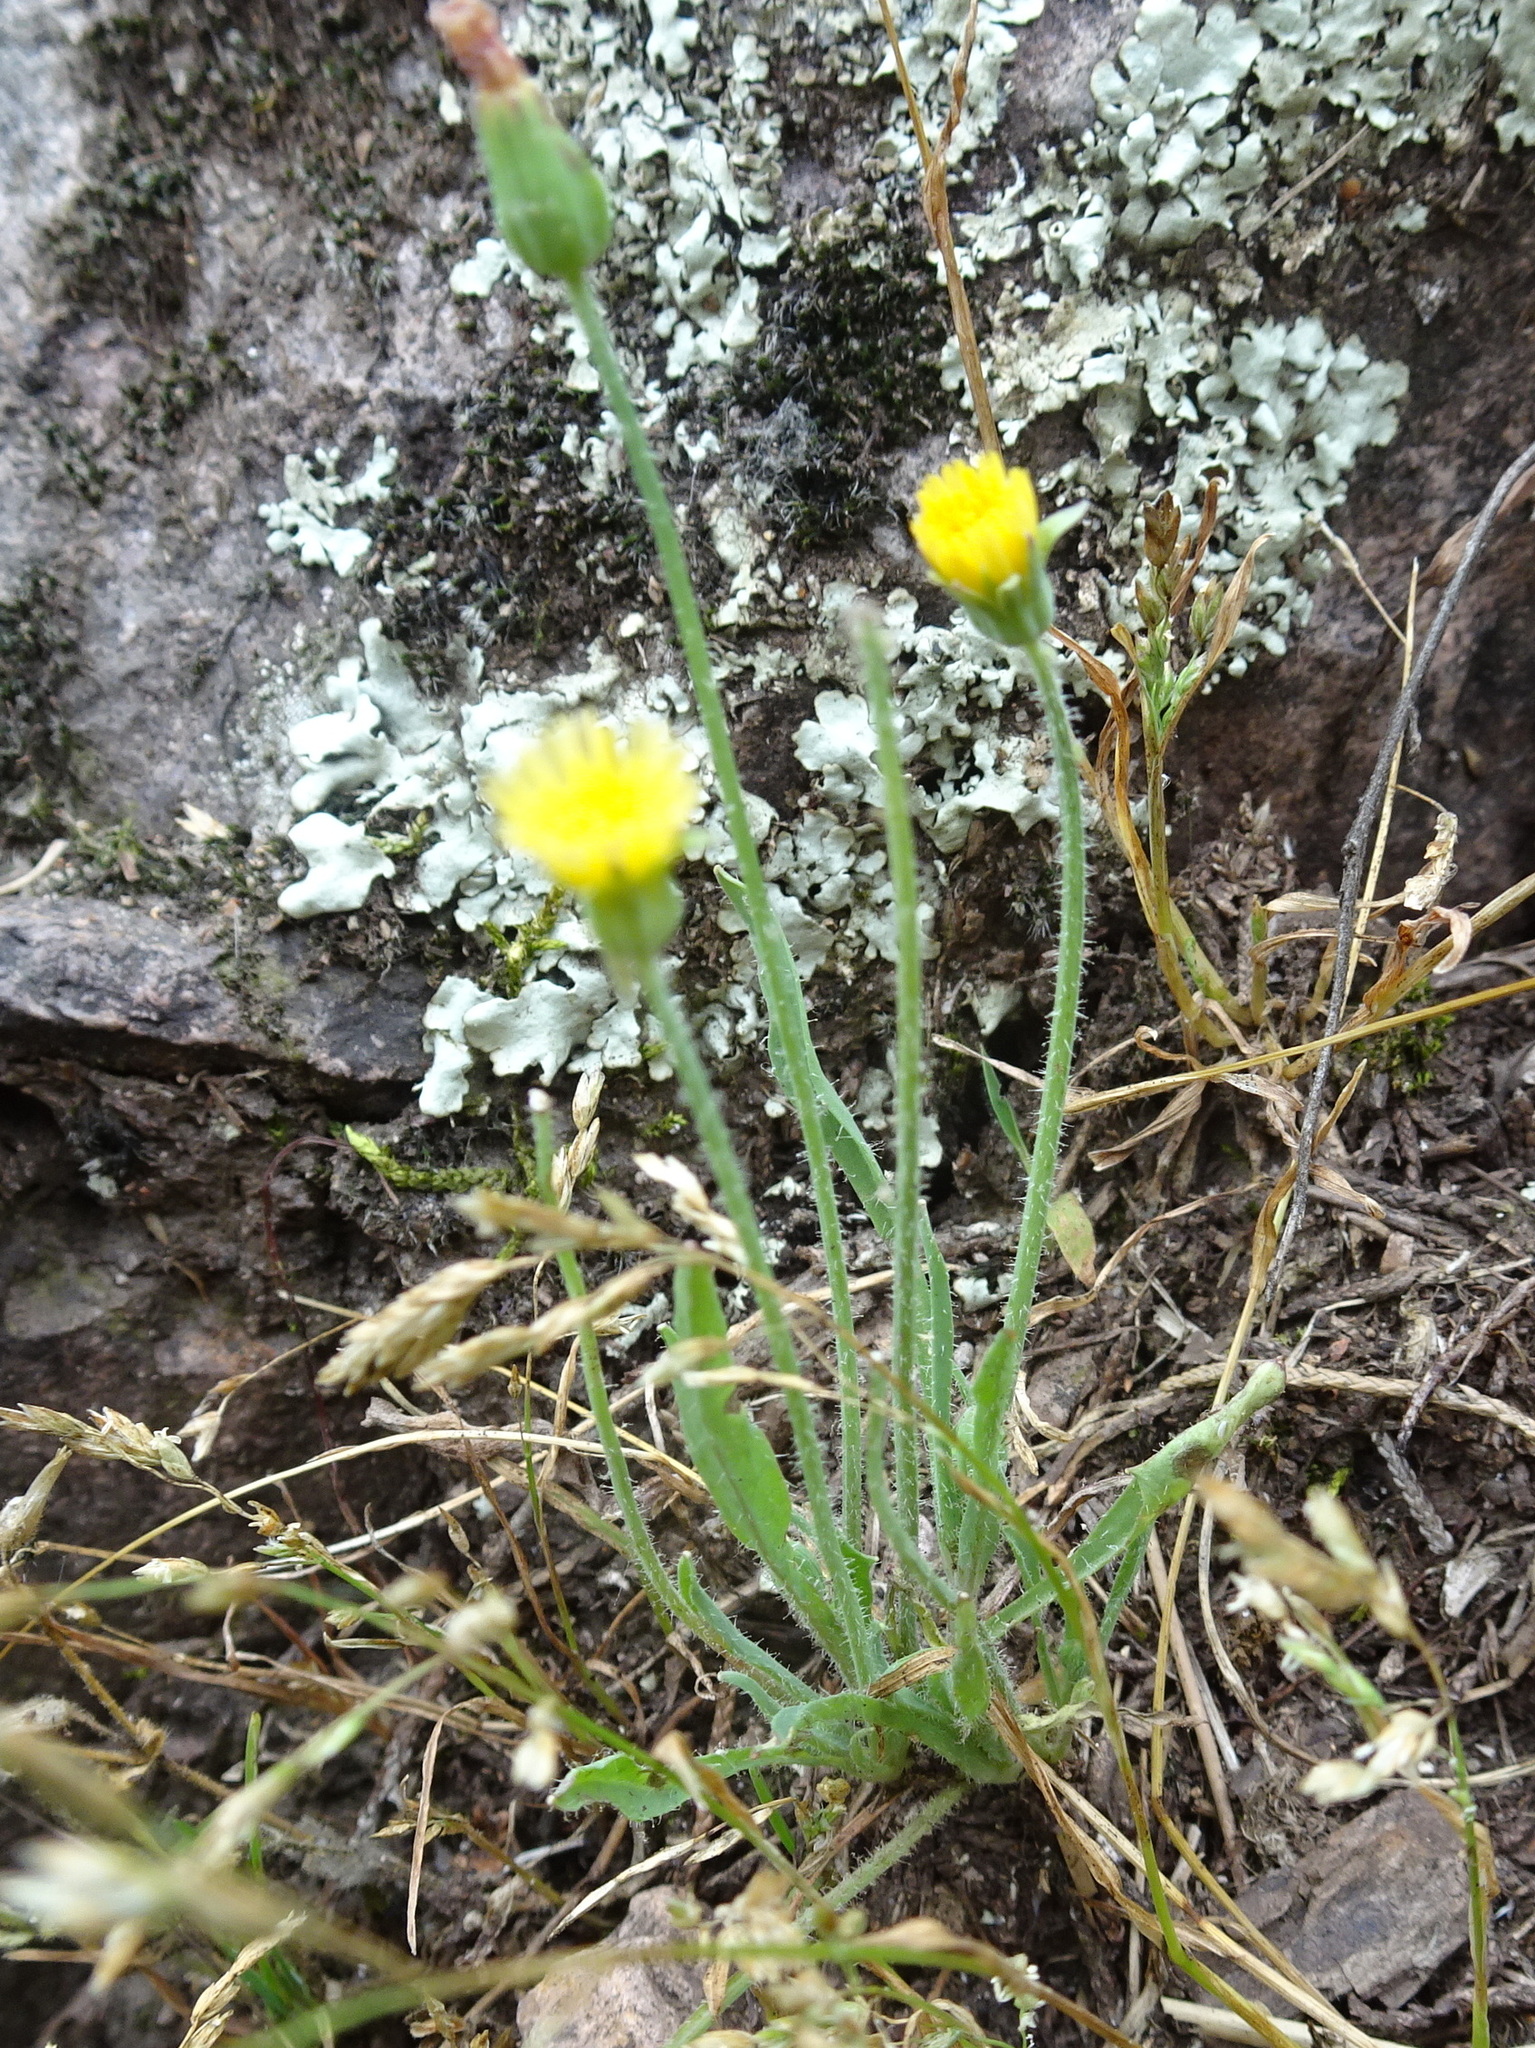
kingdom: Plantae
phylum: Tracheophyta
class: Magnoliopsida
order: Asterales
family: Asteraceae
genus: Krigia
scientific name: Krigia virginica
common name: Virginia dwarf-dandelion
